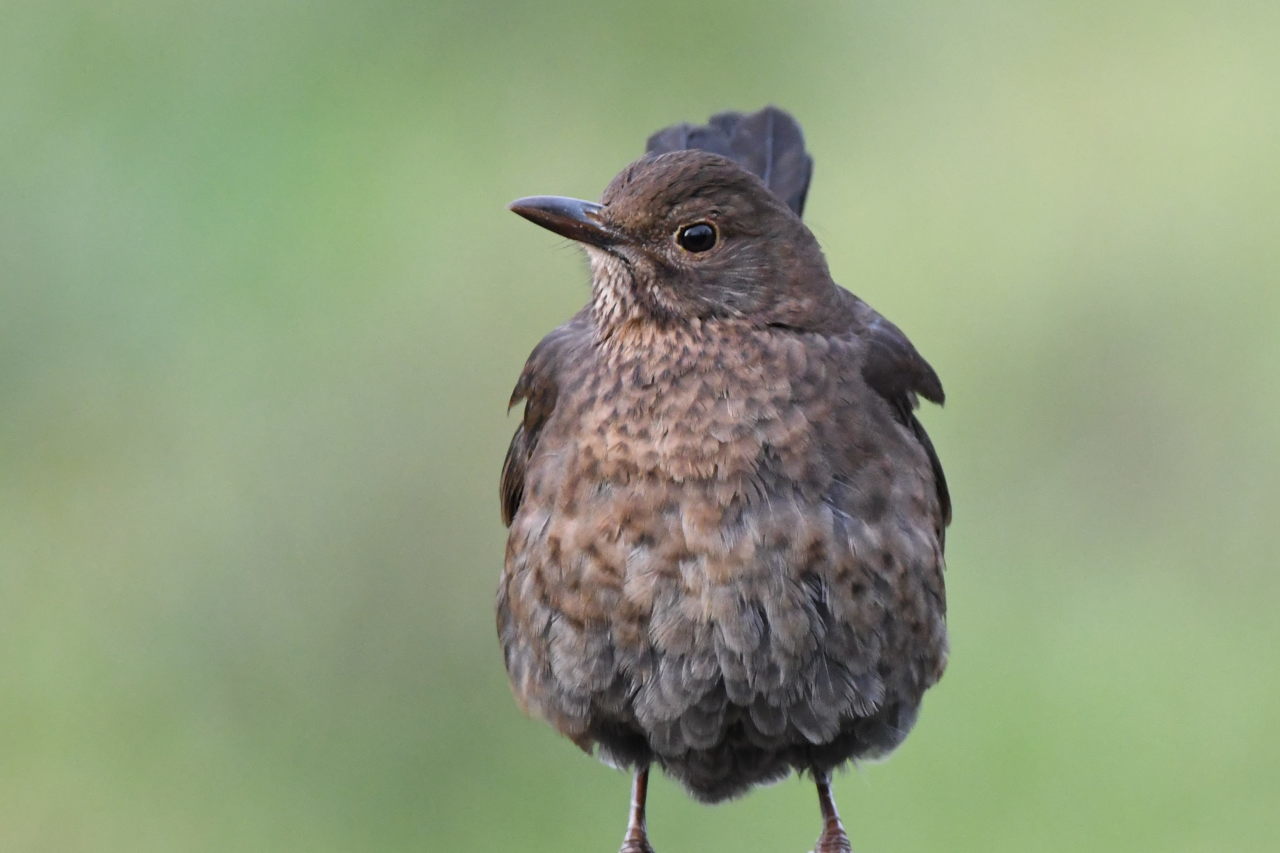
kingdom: Animalia
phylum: Chordata
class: Aves
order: Passeriformes
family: Turdidae
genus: Turdus
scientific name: Turdus merula
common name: Common blackbird
